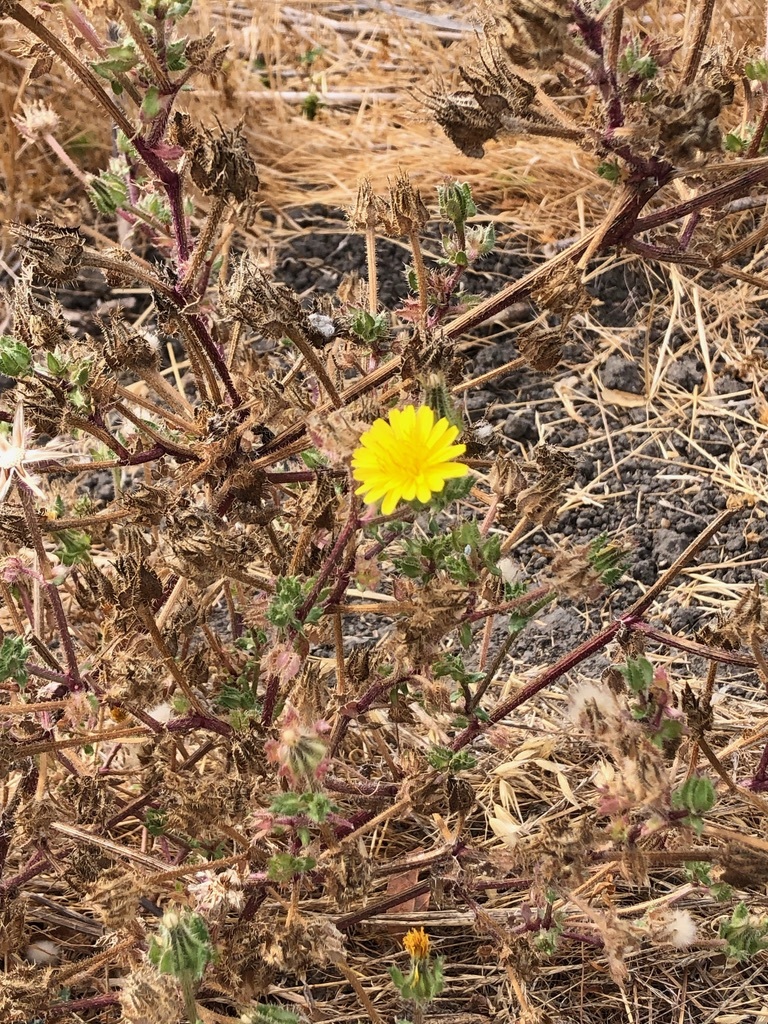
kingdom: Plantae
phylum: Tracheophyta
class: Magnoliopsida
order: Asterales
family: Asteraceae
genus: Helminthotheca
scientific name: Helminthotheca echioides
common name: Ox-tongue
